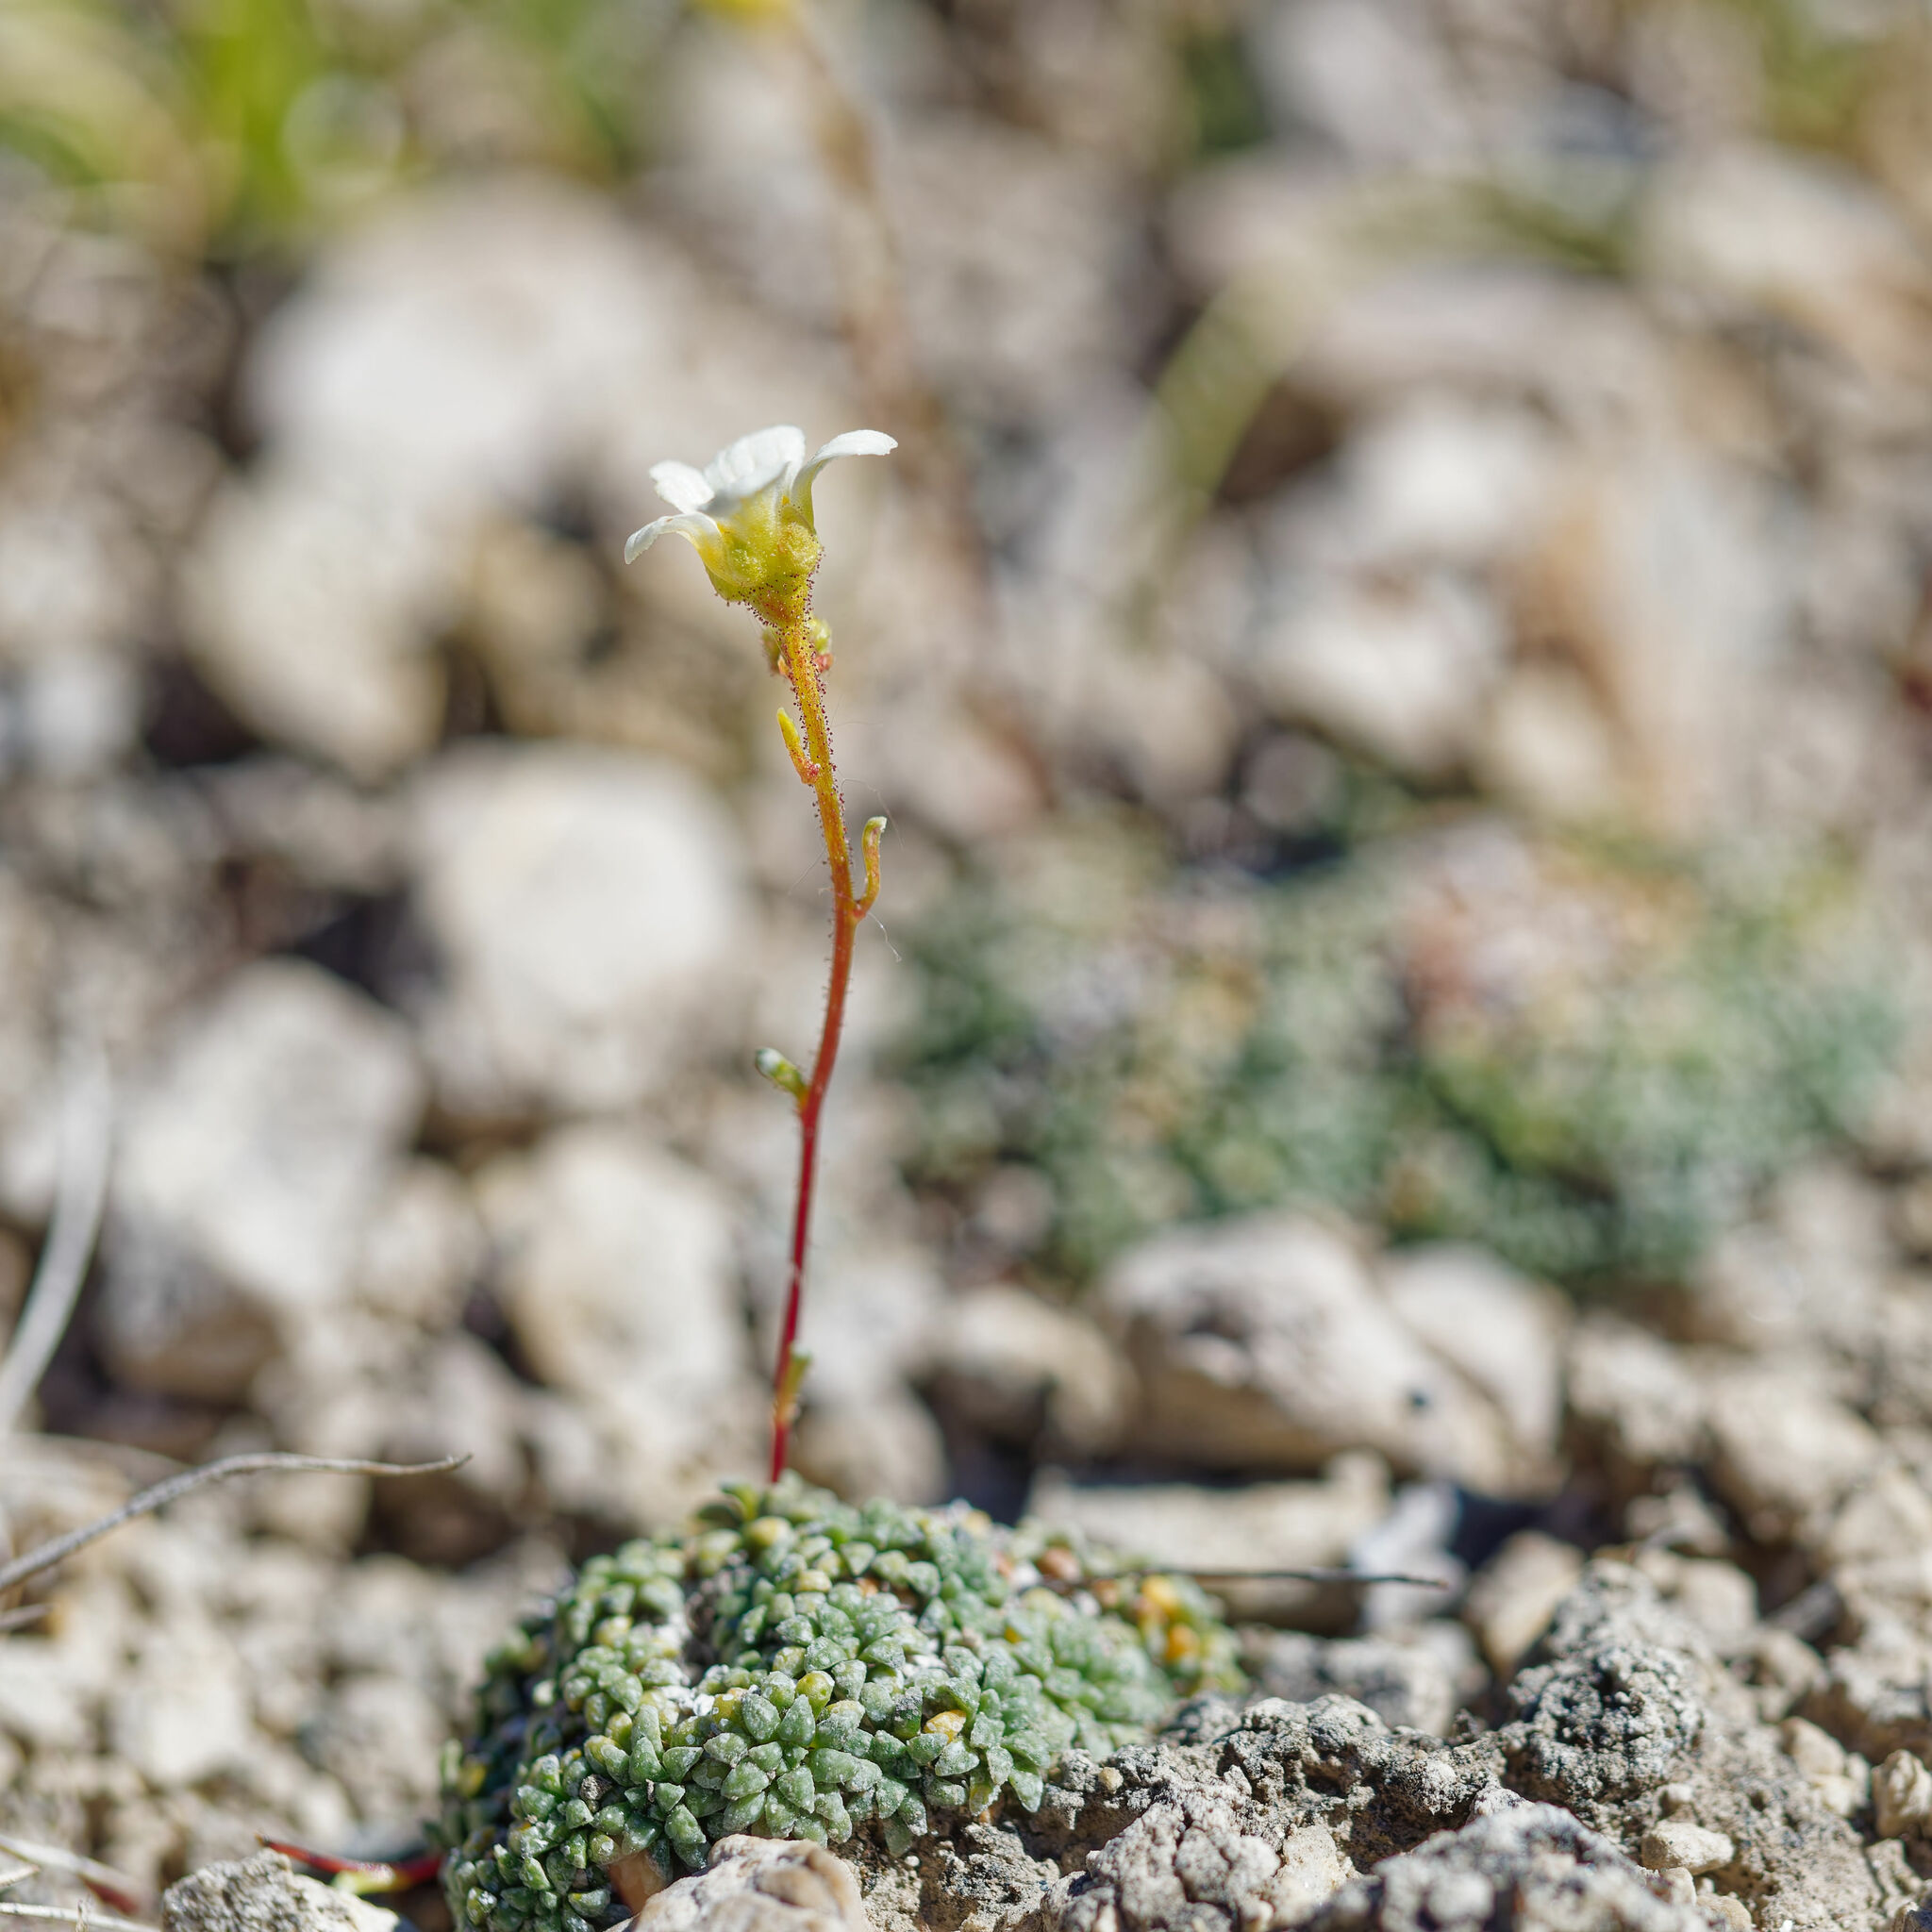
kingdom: Plantae
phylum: Tracheophyta
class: Magnoliopsida
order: Saxifragales
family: Saxifragaceae
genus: Saxifraga
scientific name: Saxifraga caesia
